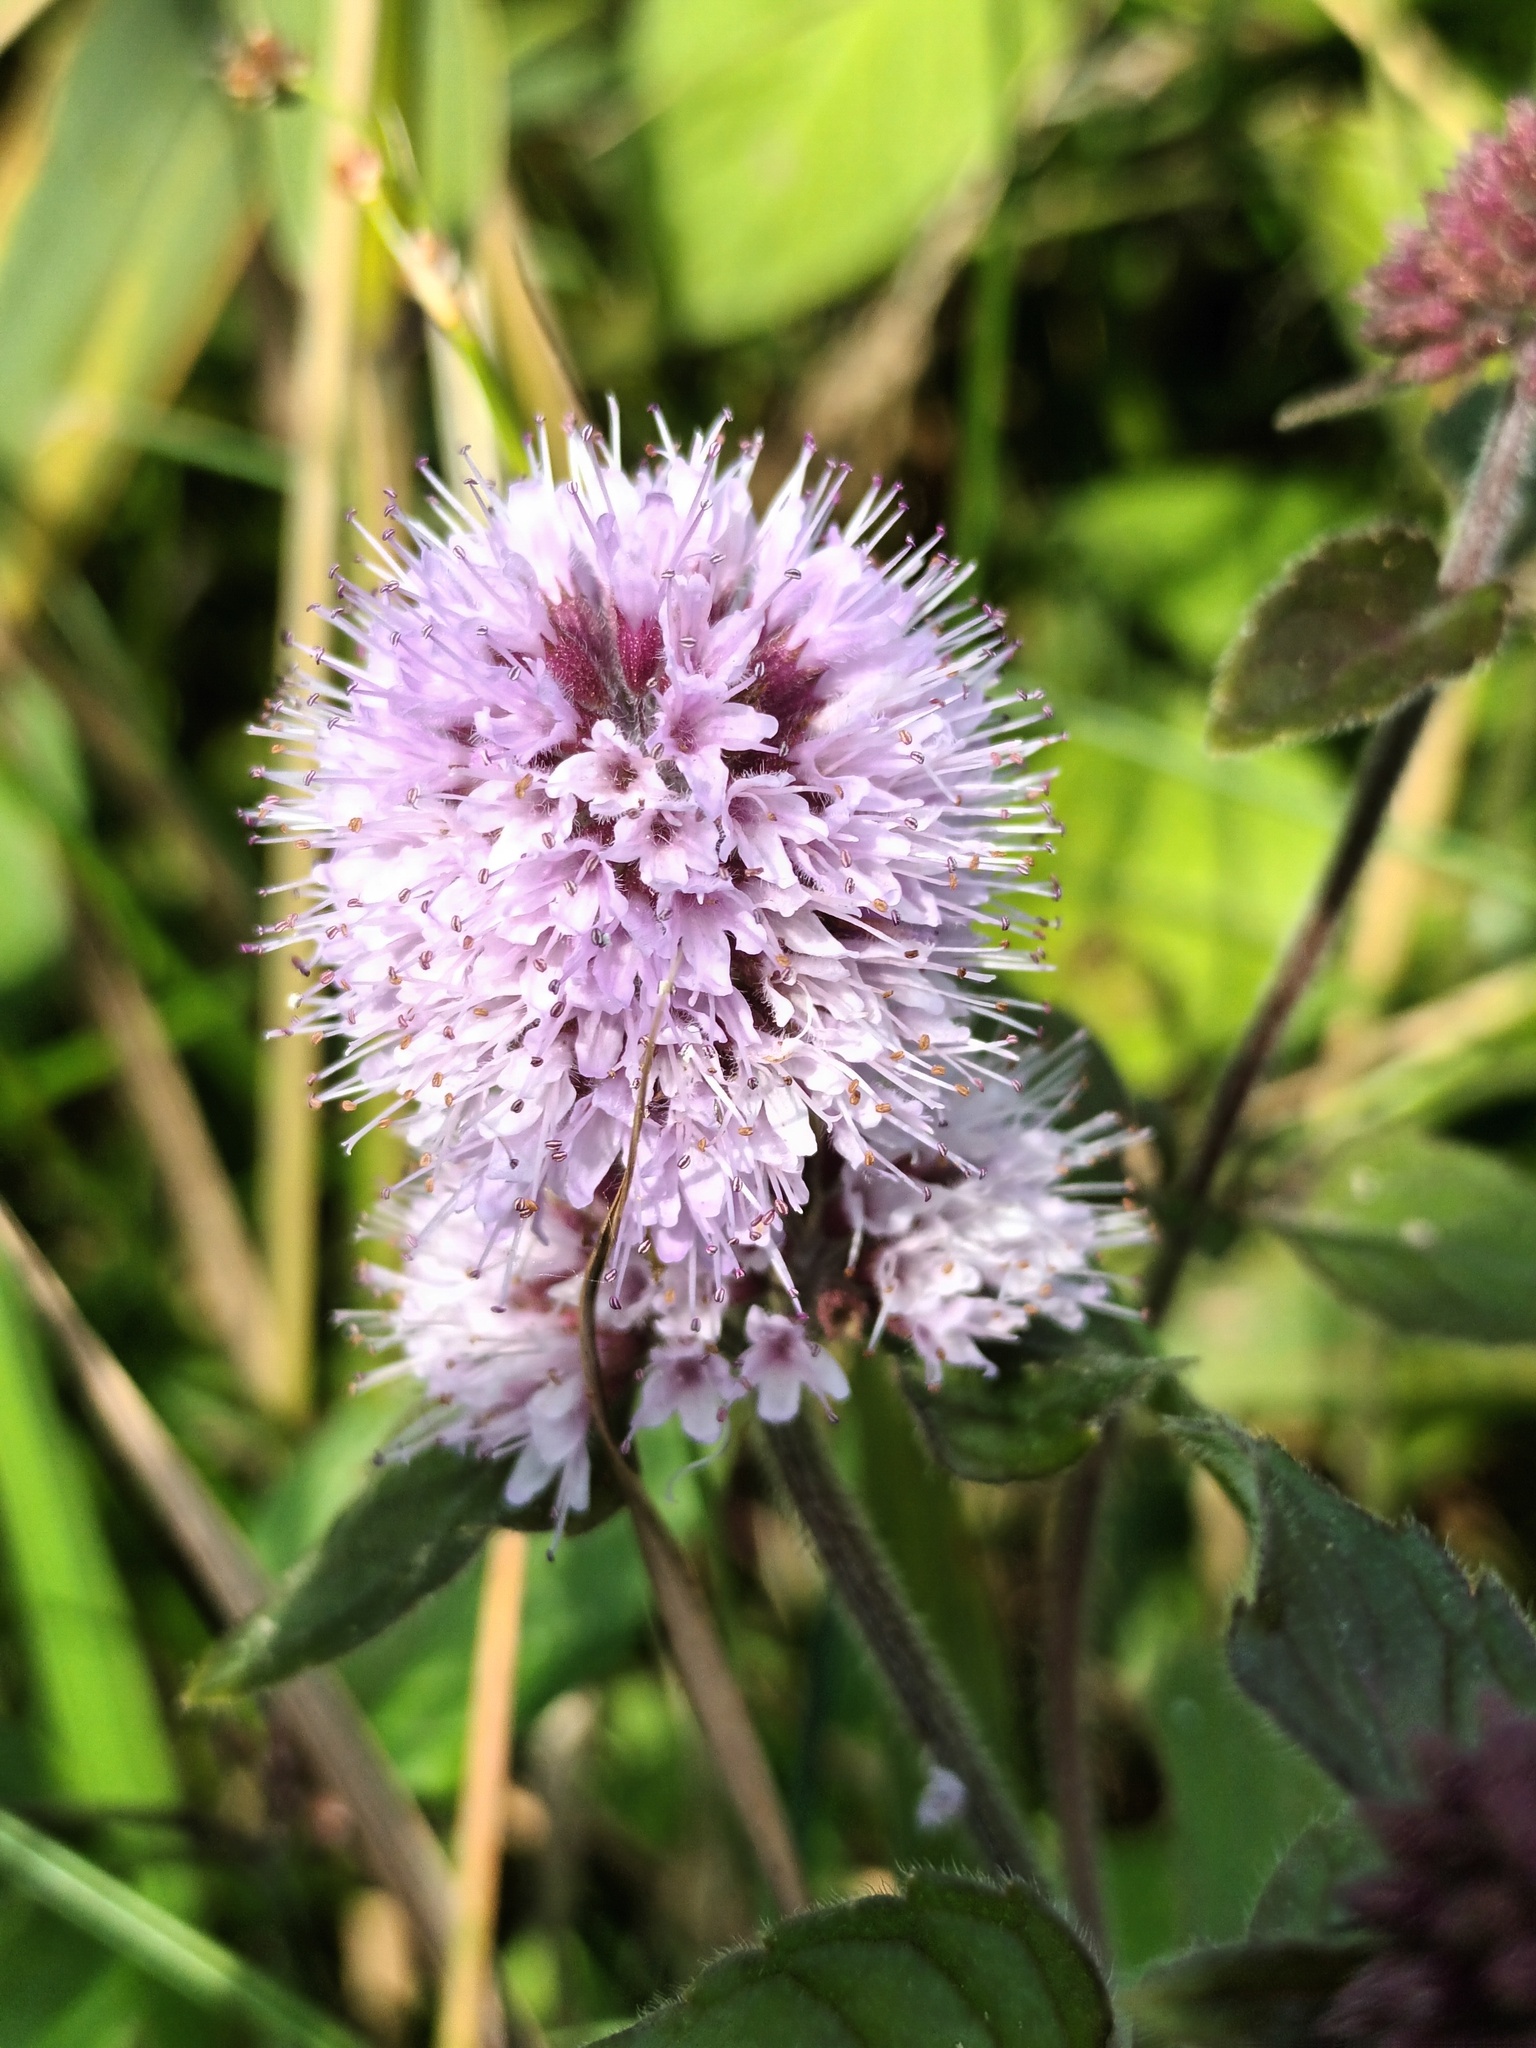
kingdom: Plantae
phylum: Tracheophyta
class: Magnoliopsida
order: Lamiales
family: Lamiaceae
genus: Mentha
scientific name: Mentha aquatica
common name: Water mint
